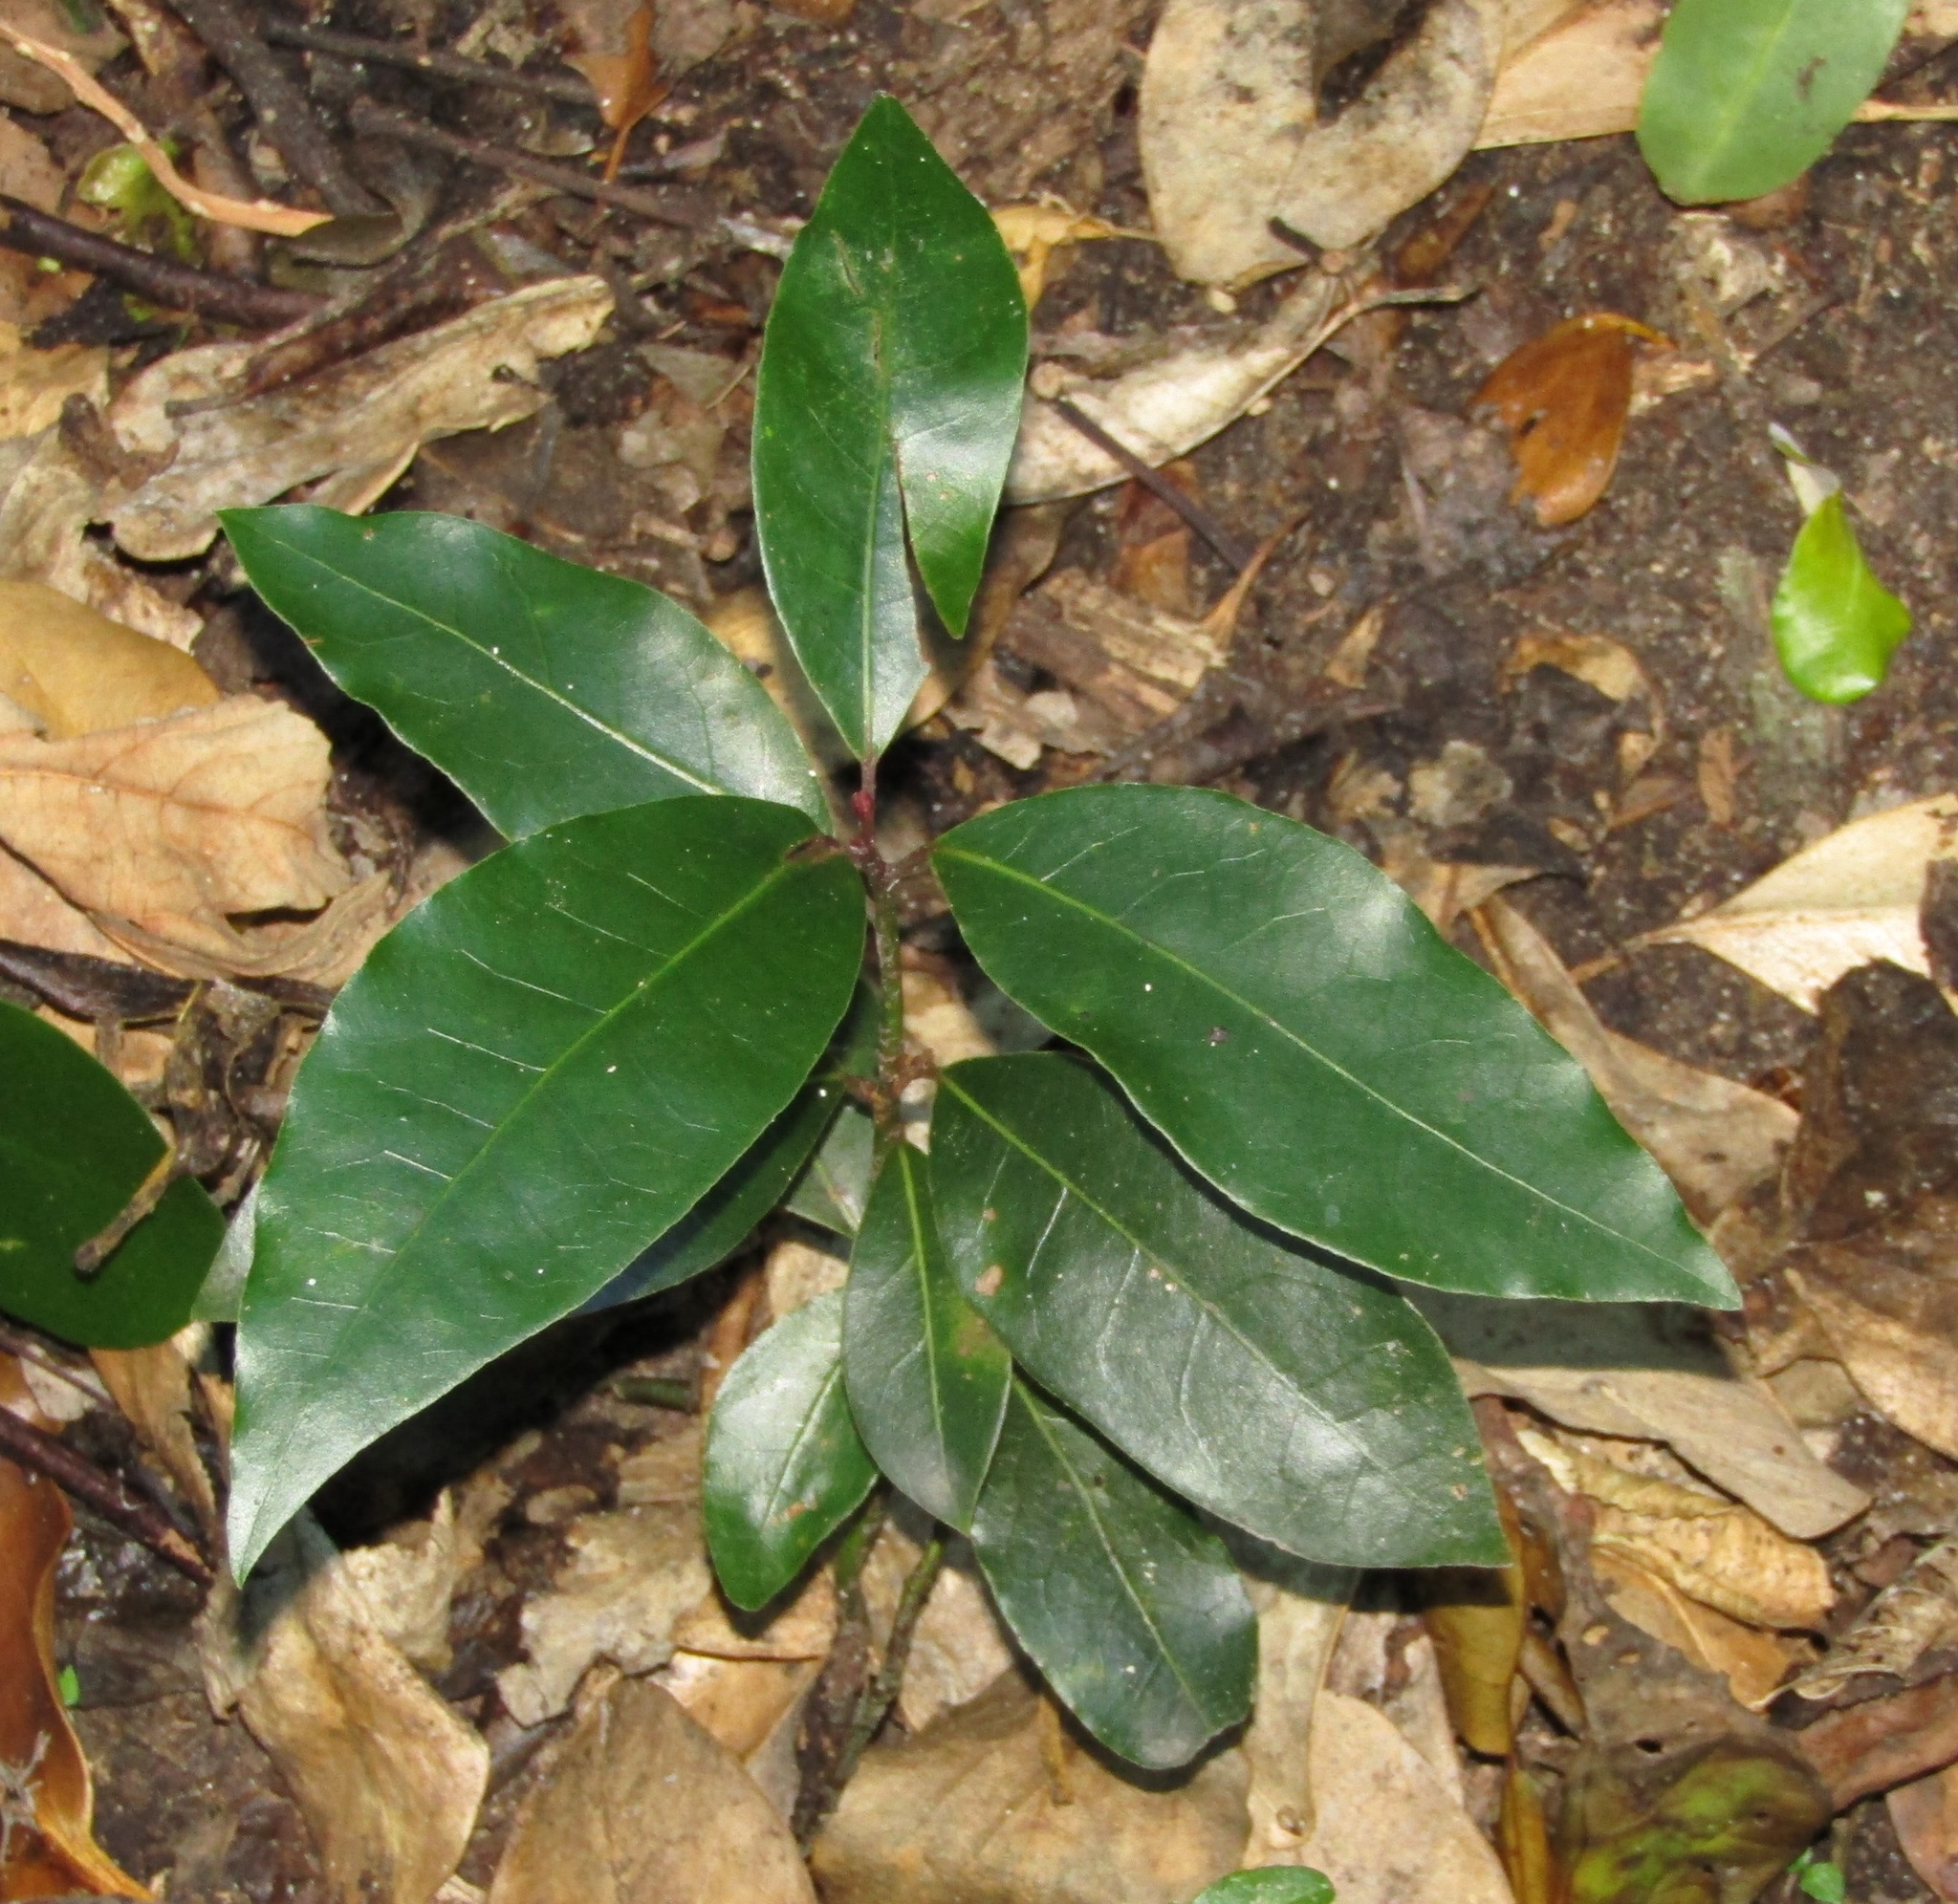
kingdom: Plantae
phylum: Tracheophyta
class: Magnoliopsida
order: Laurales
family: Lauraceae
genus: Laurus
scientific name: Laurus nobilis
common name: Bay
